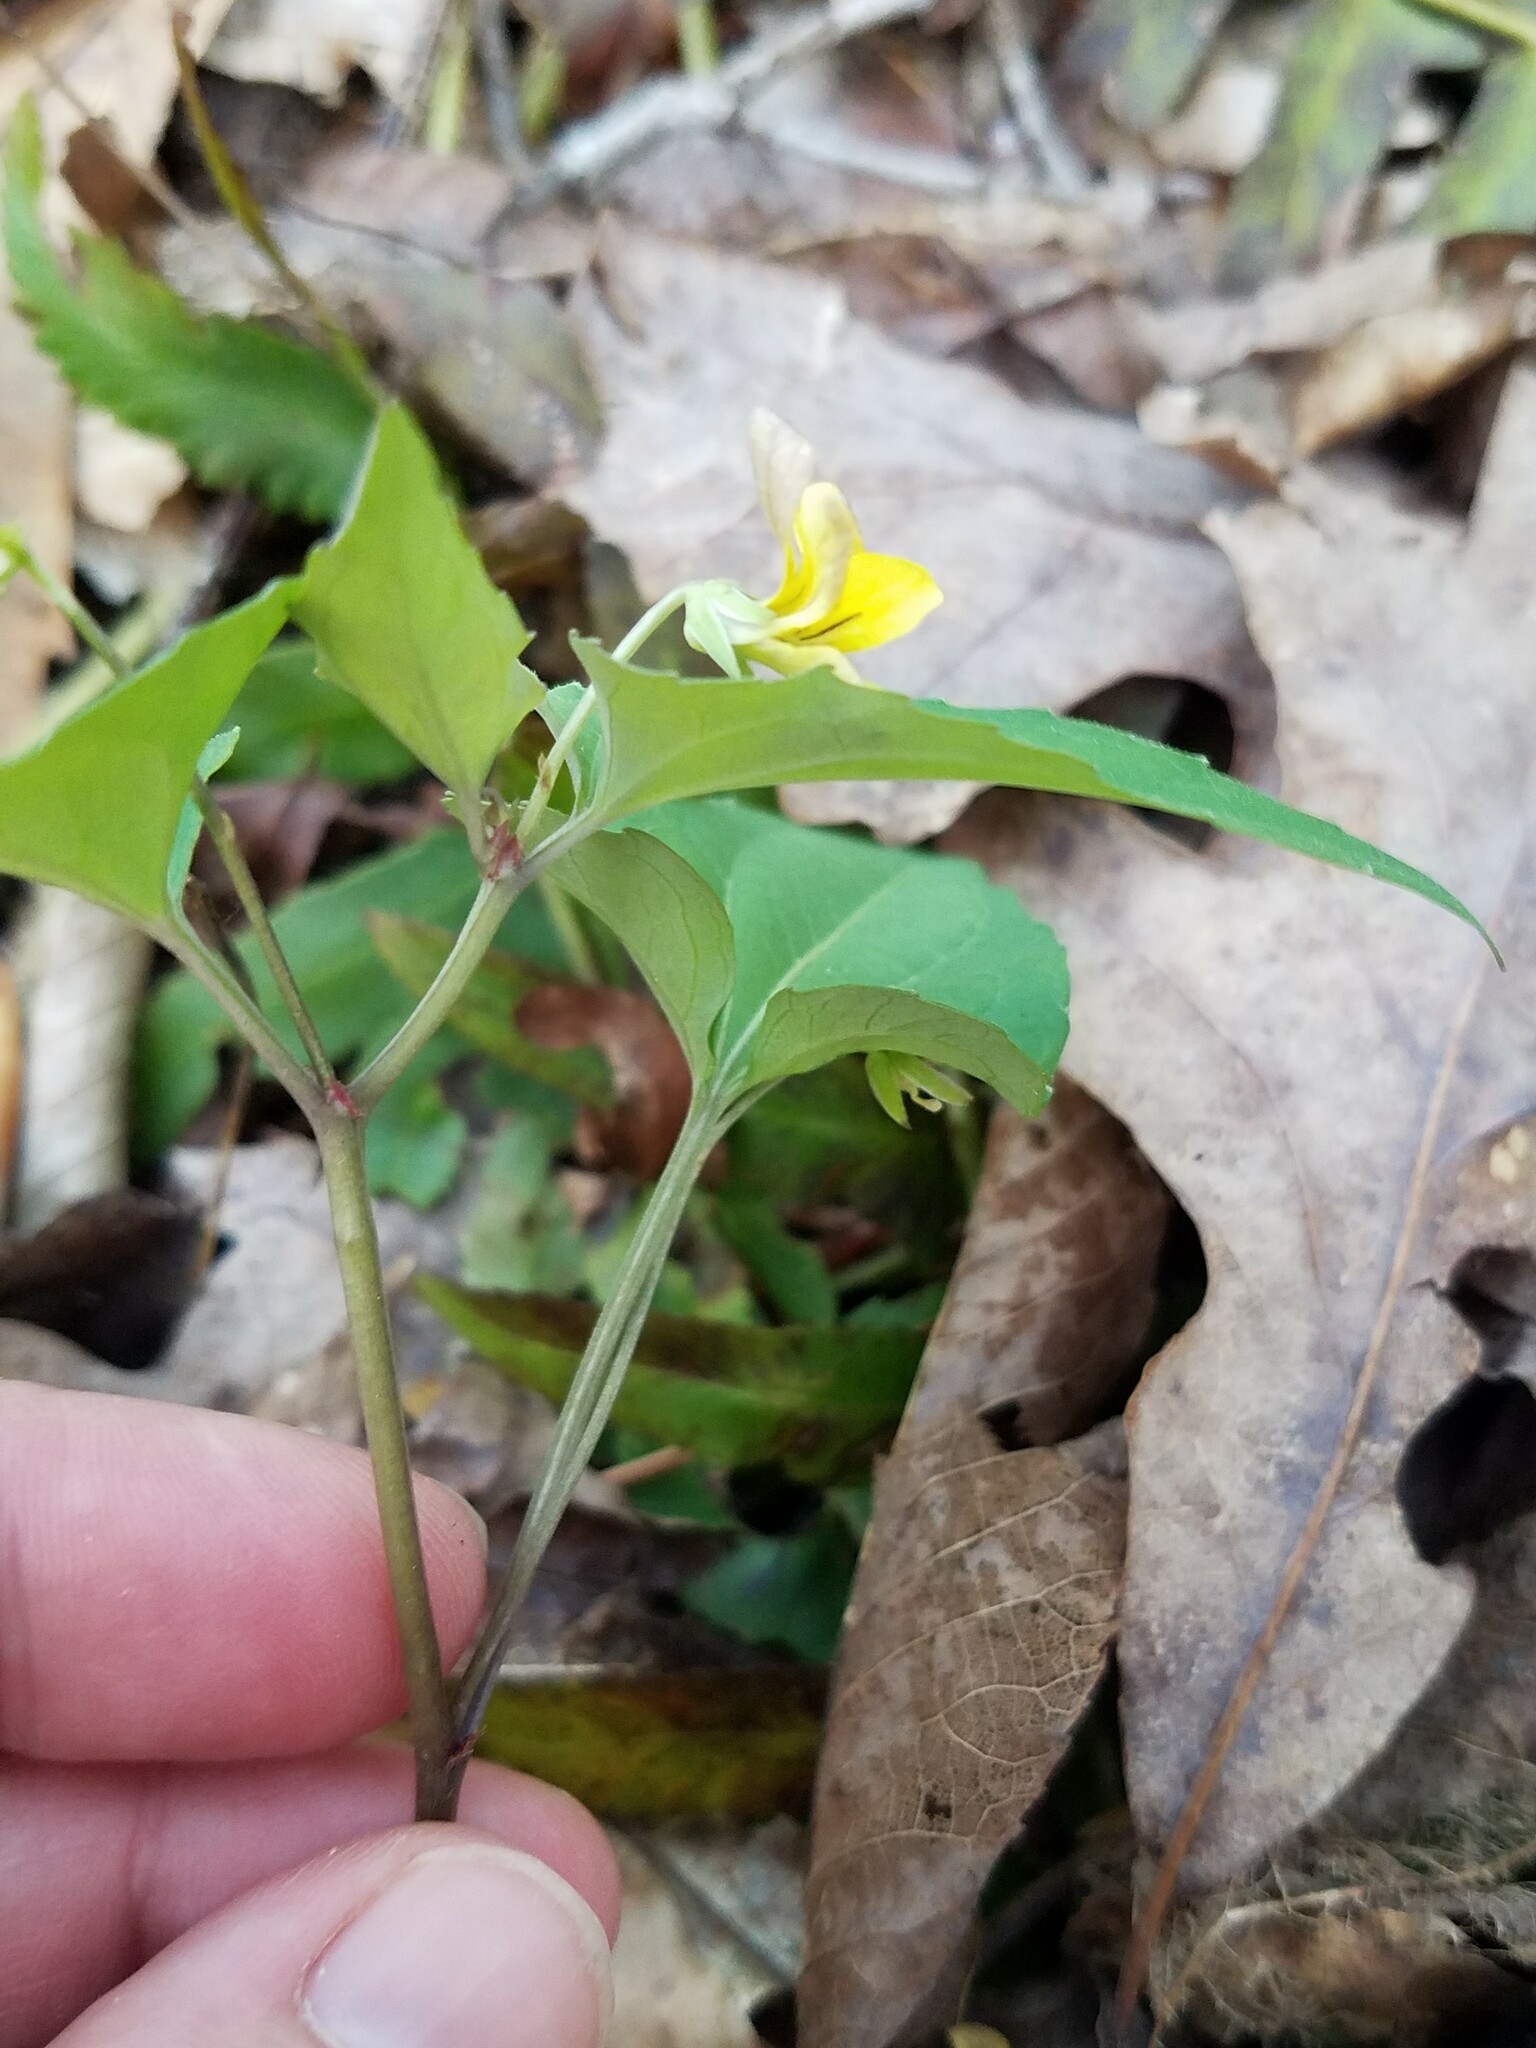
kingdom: Plantae
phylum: Tracheophyta
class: Magnoliopsida
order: Malpighiales
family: Violaceae
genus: Viola
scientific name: Viola hastata
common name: Spear-leaf violet
